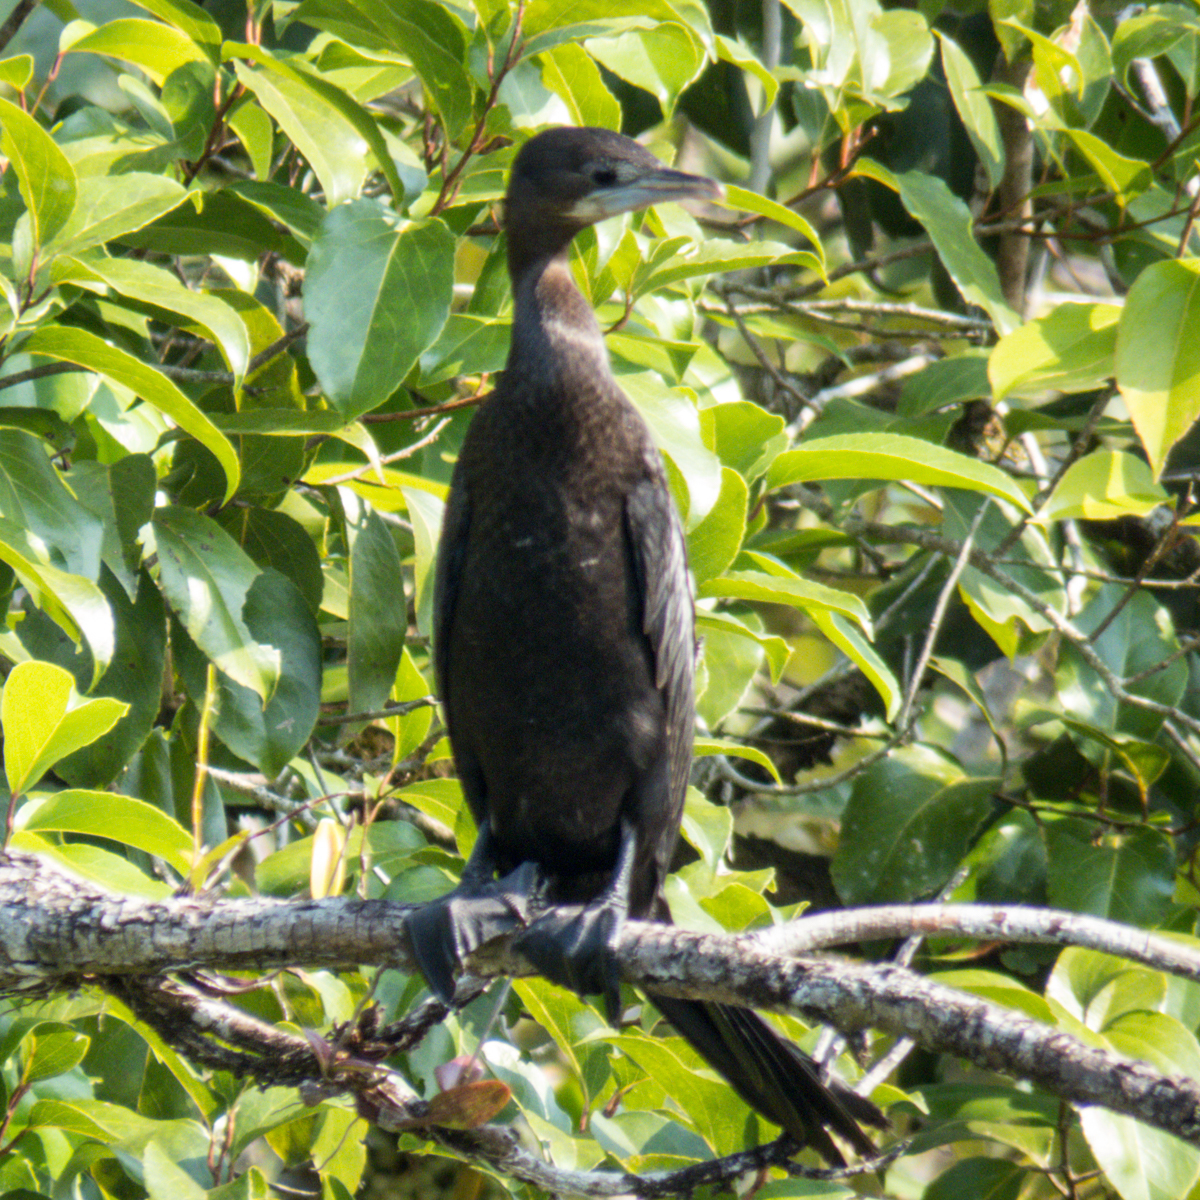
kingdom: Animalia
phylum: Chordata
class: Aves
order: Suliformes
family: Phalacrocoracidae
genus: Microcarbo
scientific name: Microcarbo niger
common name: Little cormorant
